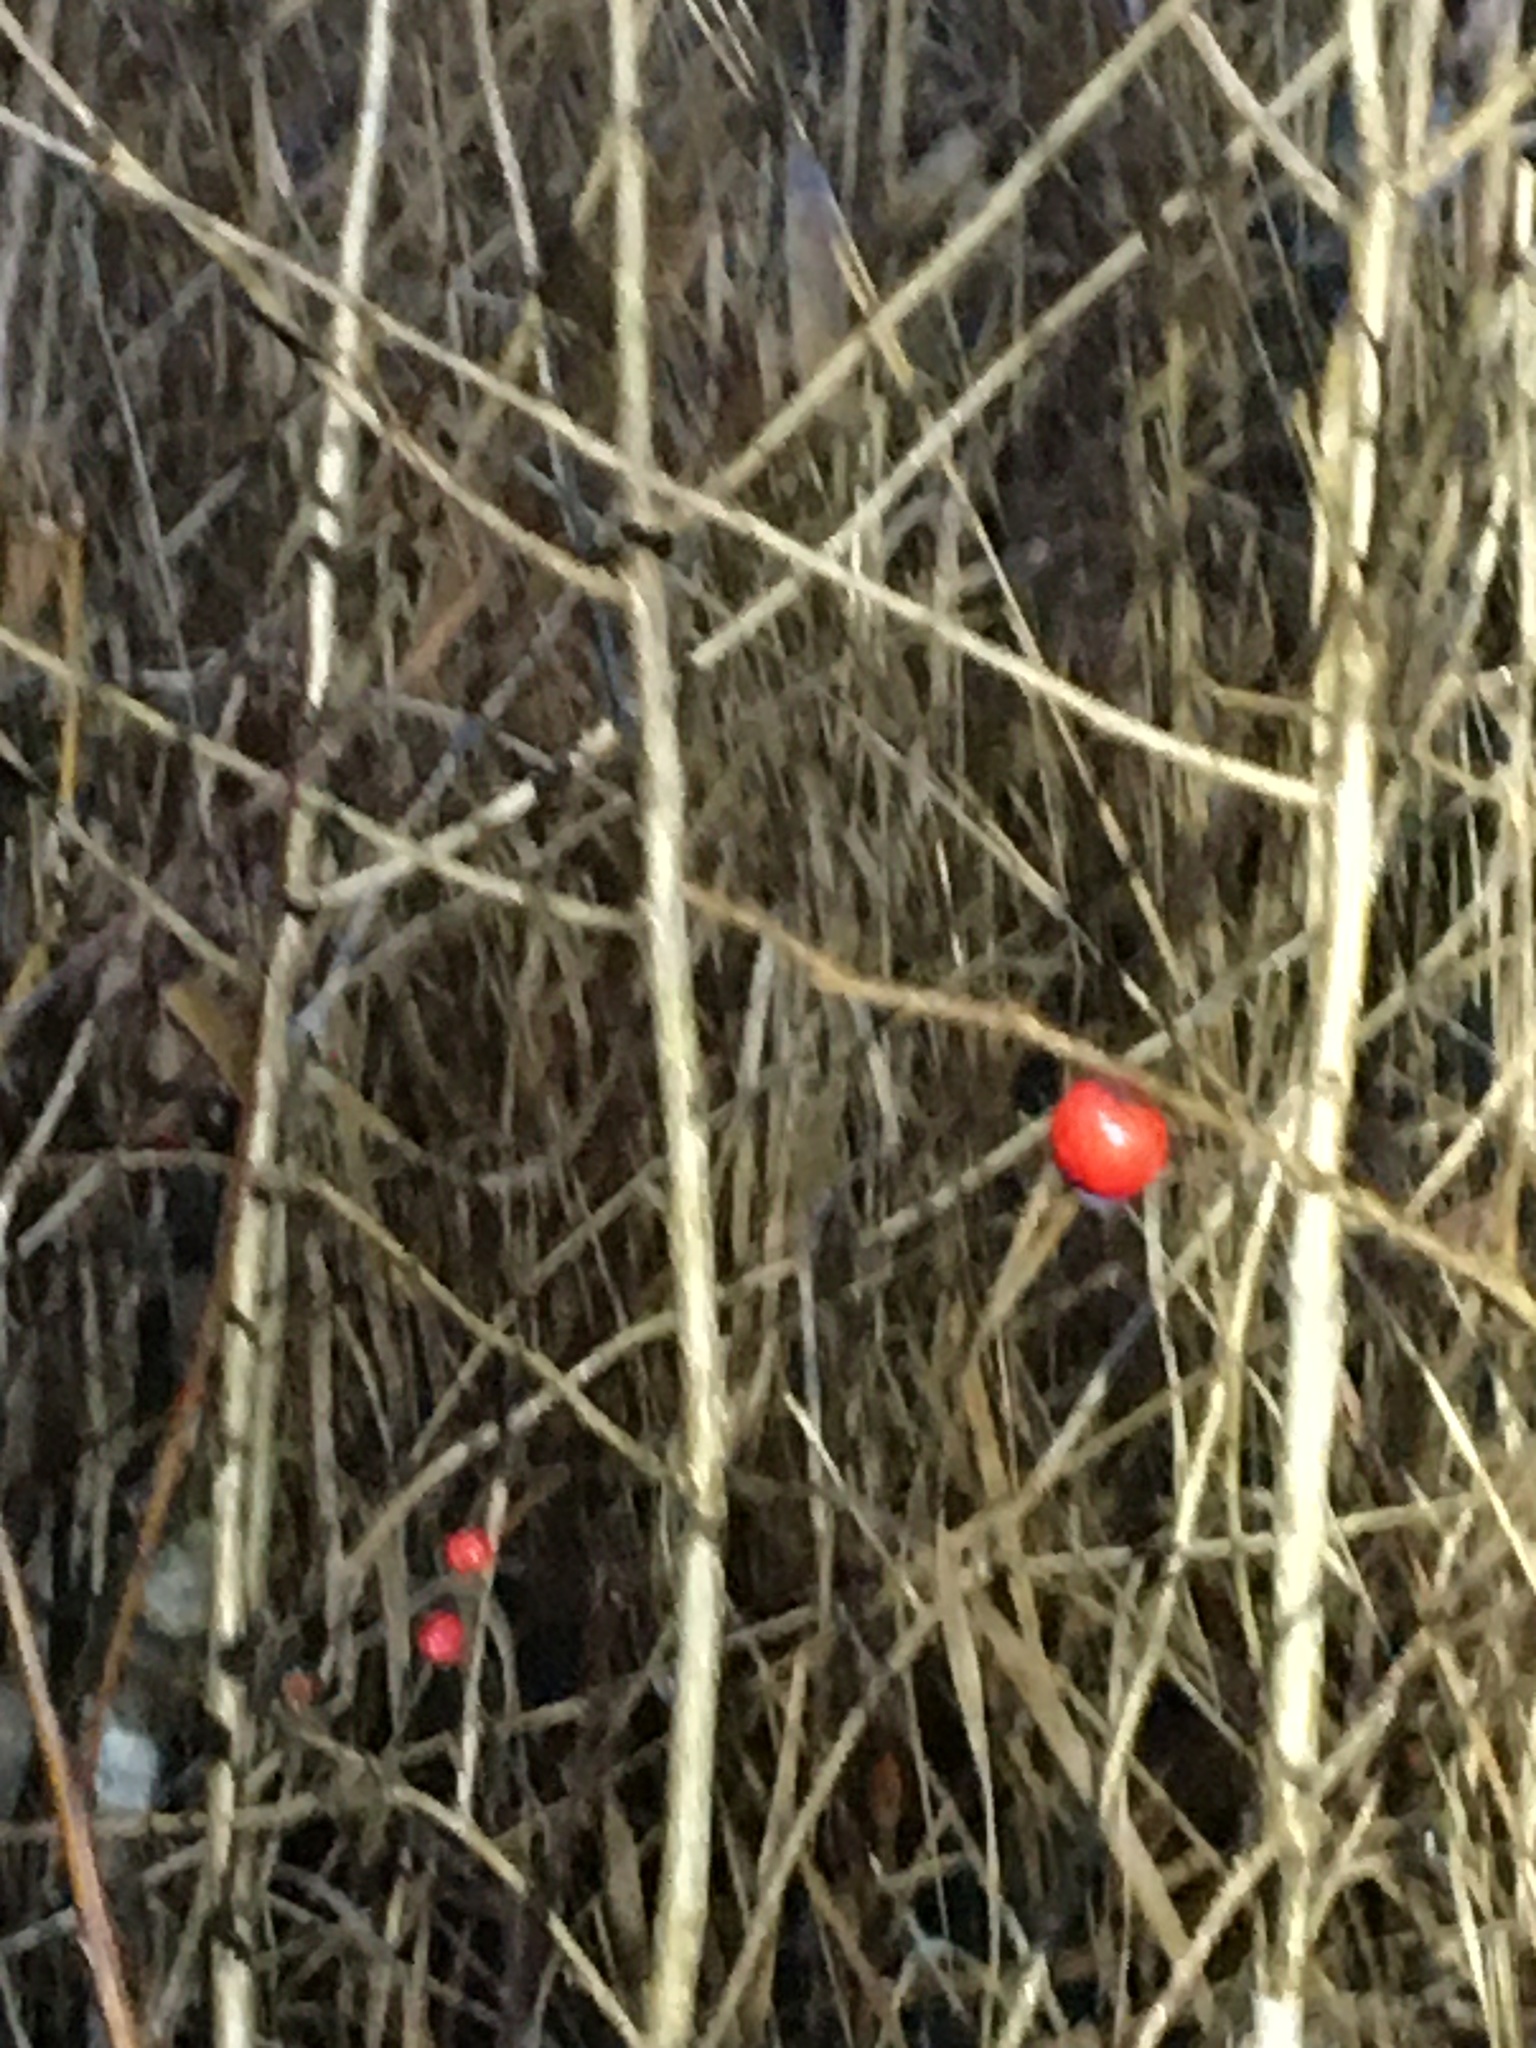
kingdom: Plantae
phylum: Tracheophyta
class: Magnoliopsida
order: Aquifoliales
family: Aquifoliaceae
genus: Ilex
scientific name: Ilex verticillata
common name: Virginia winterberry
